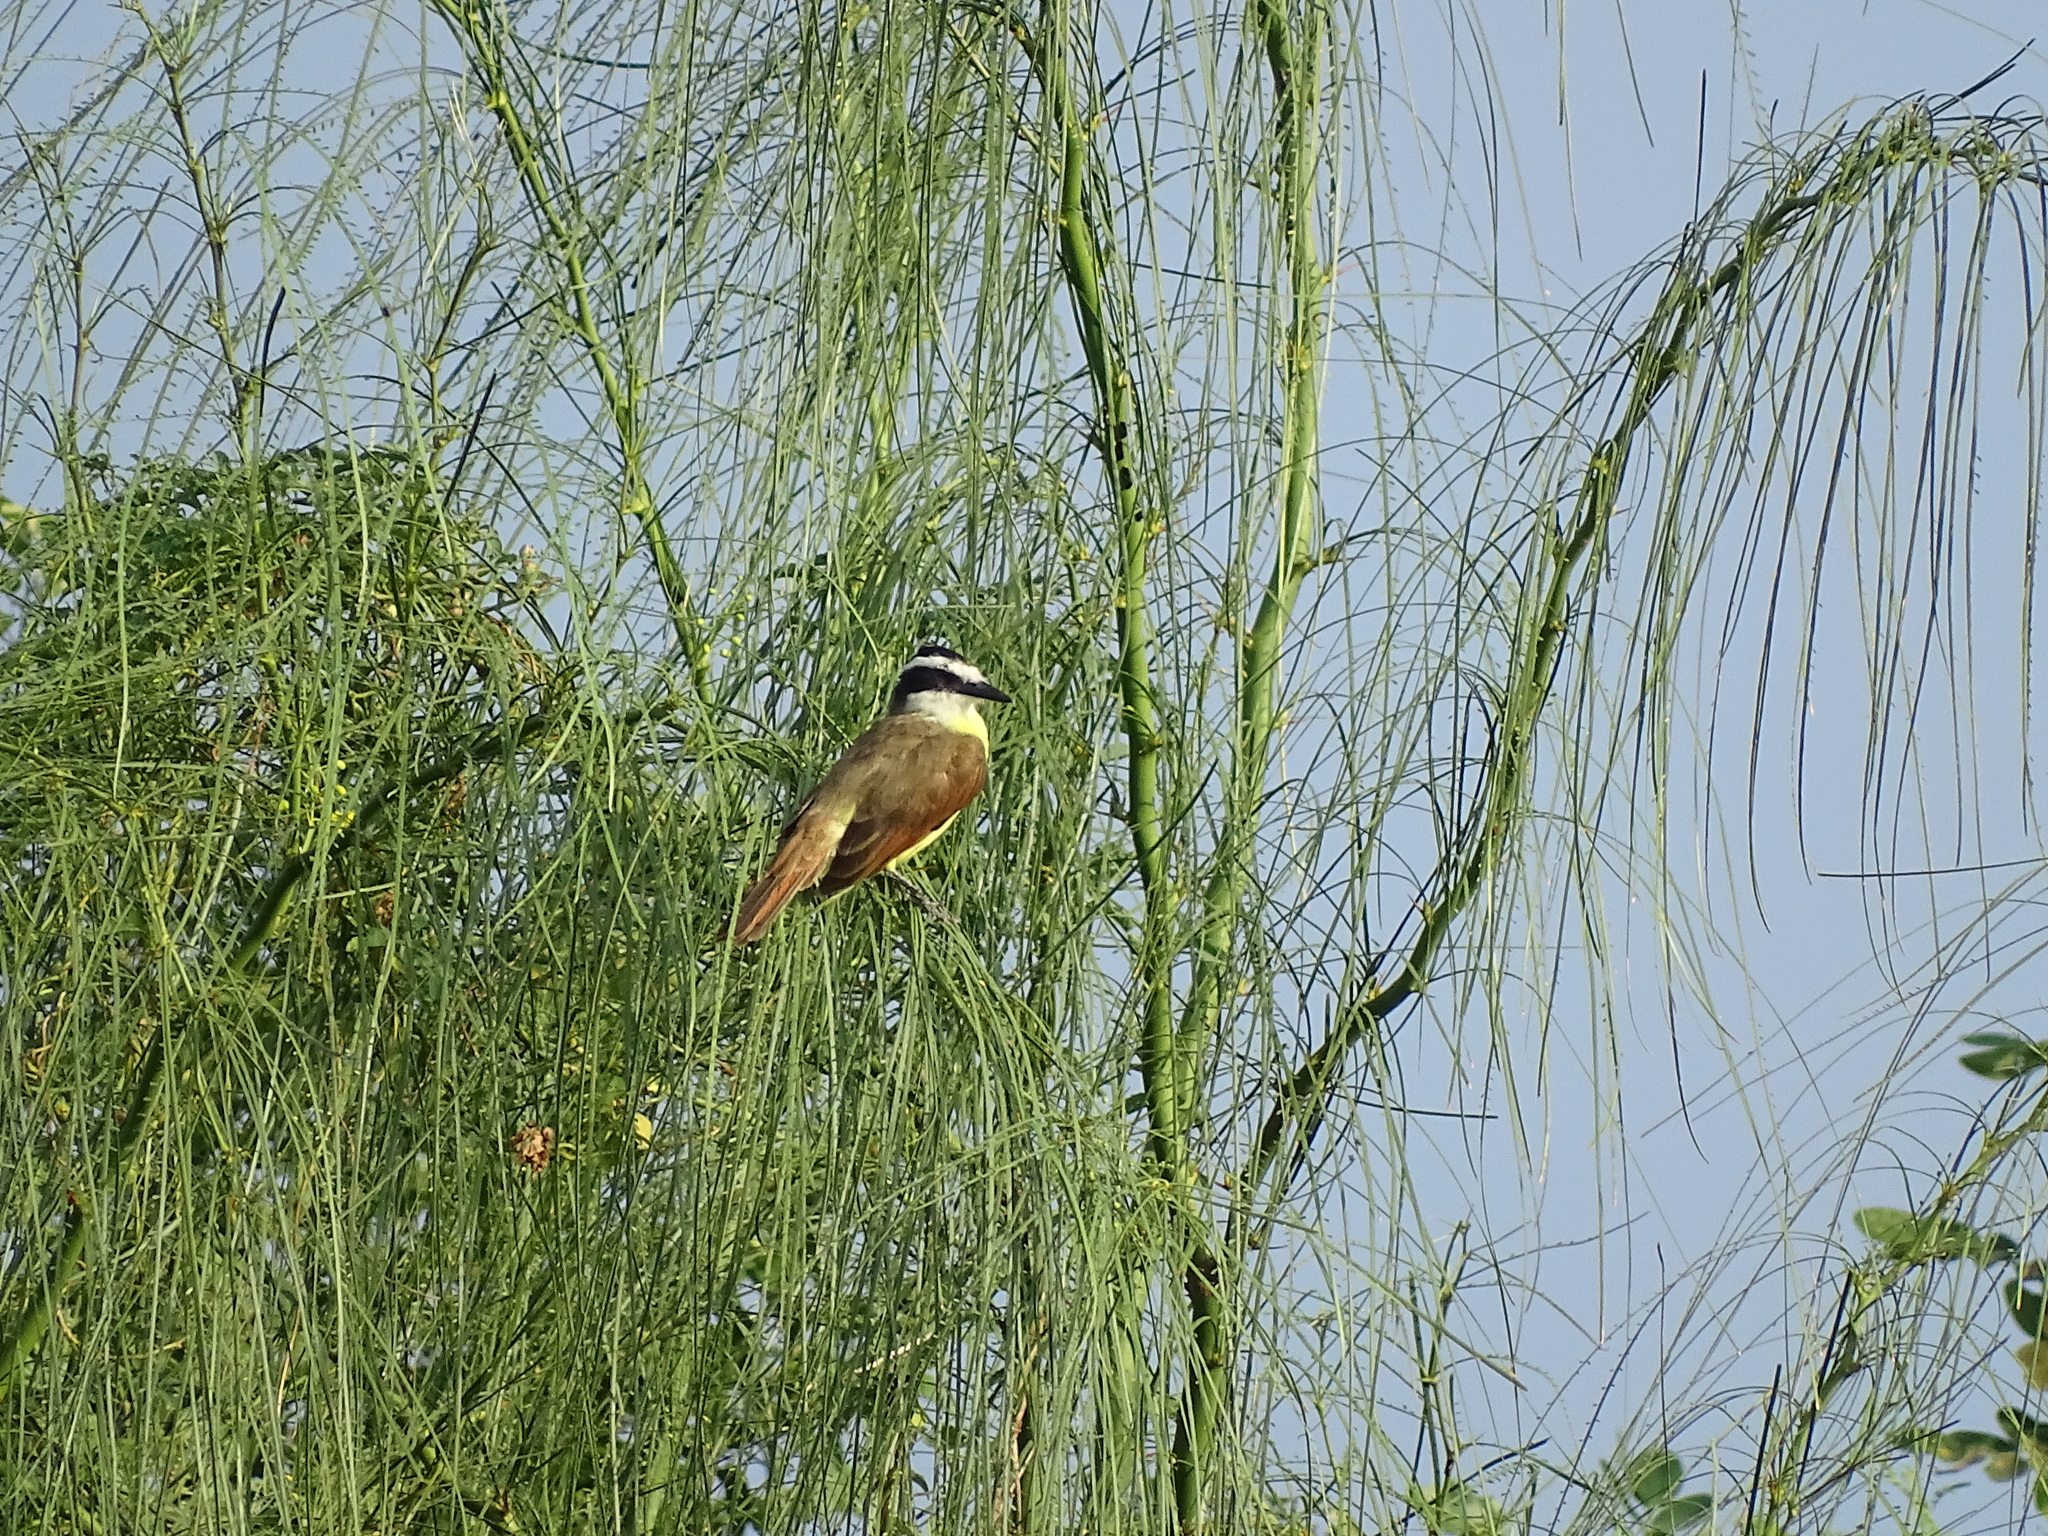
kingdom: Animalia
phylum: Chordata
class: Aves
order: Passeriformes
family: Tyrannidae
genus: Pitangus
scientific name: Pitangus sulphuratus
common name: Great kiskadee
